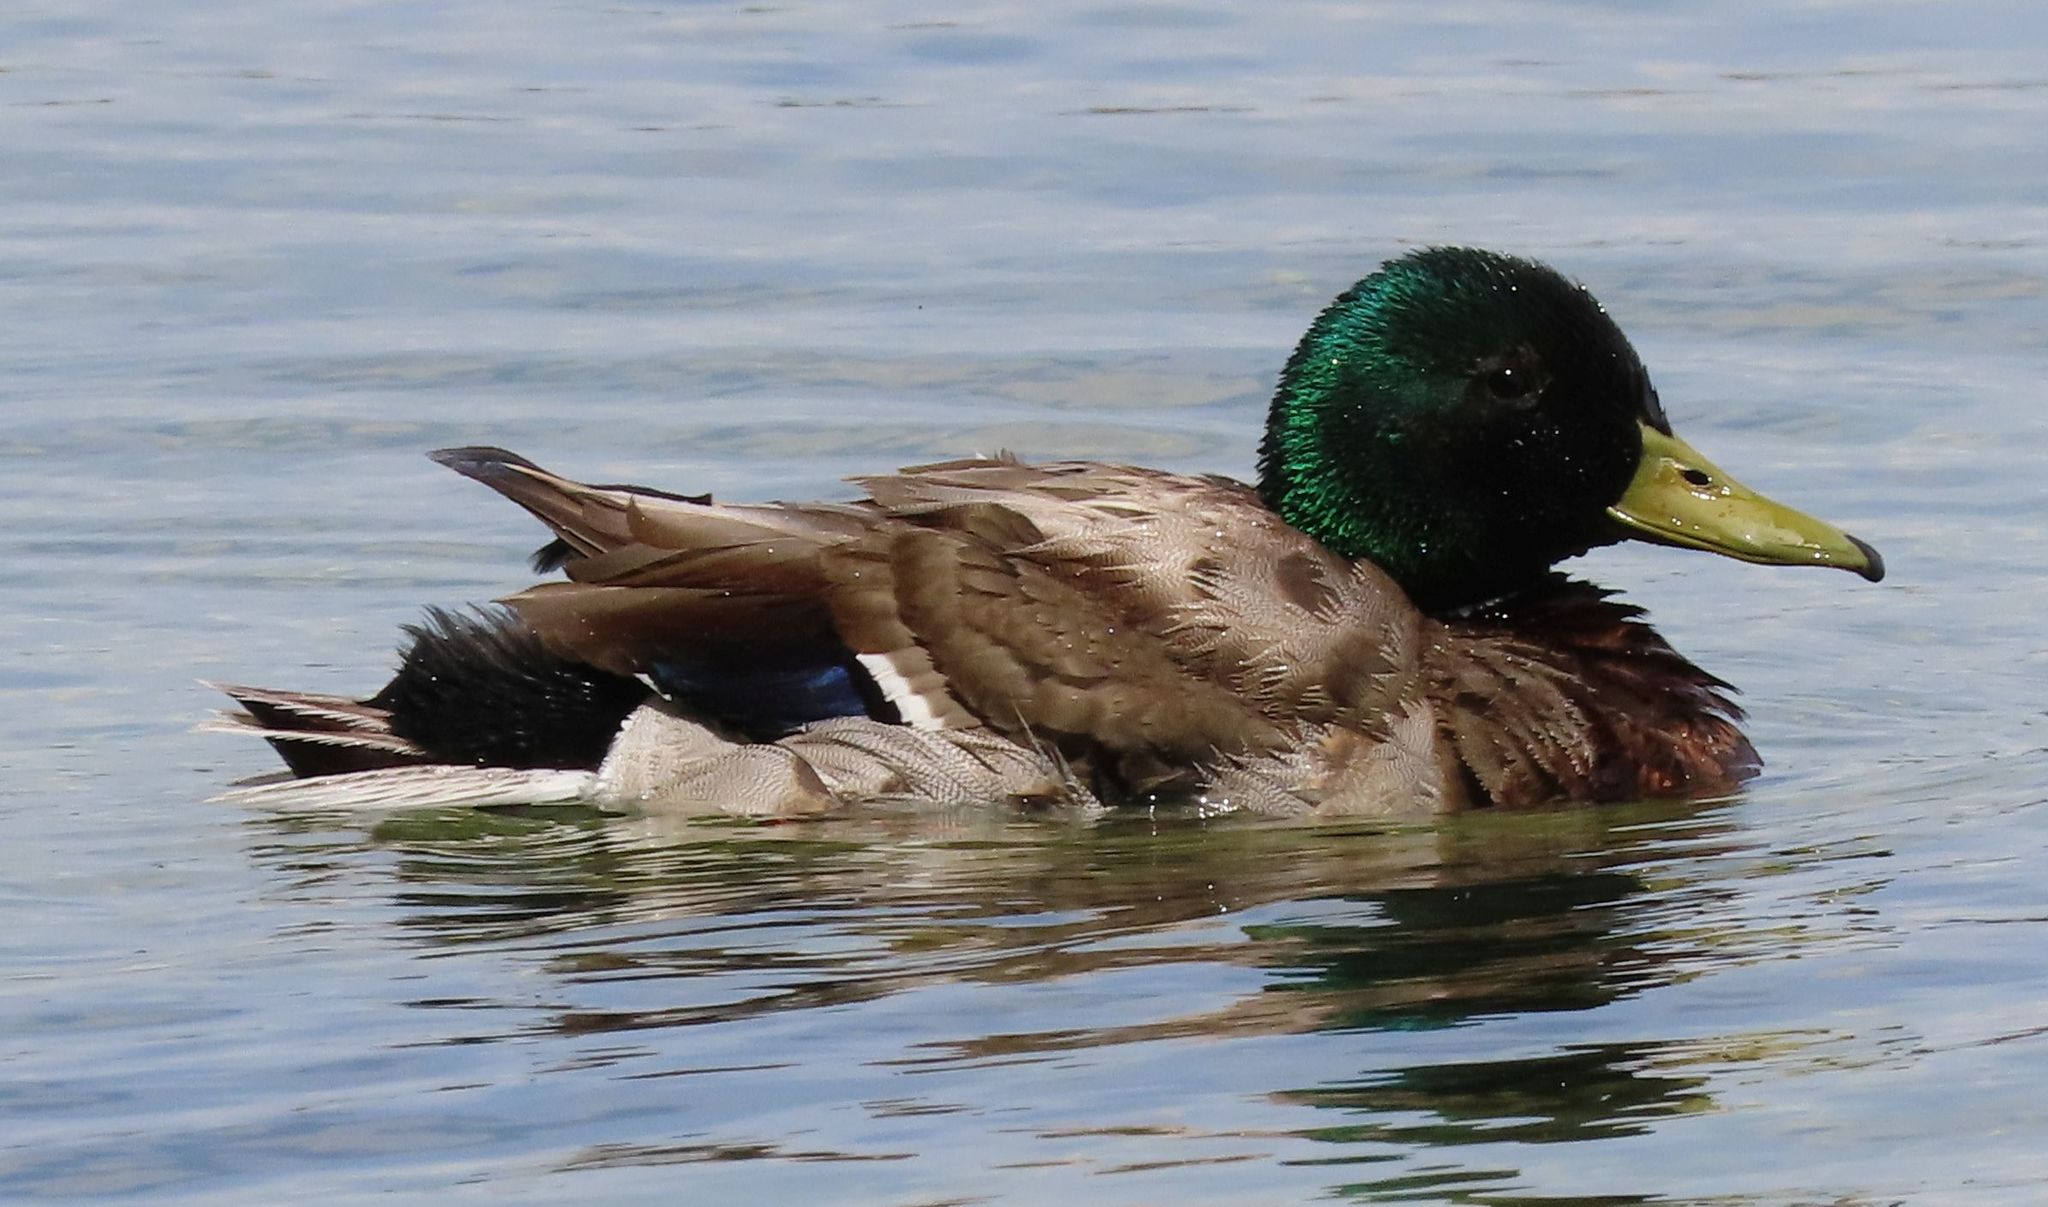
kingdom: Animalia
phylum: Chordata
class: Aves
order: Anseriformes
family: Anatidae
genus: Anas
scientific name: Anas platyrhynchos
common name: Mallard
